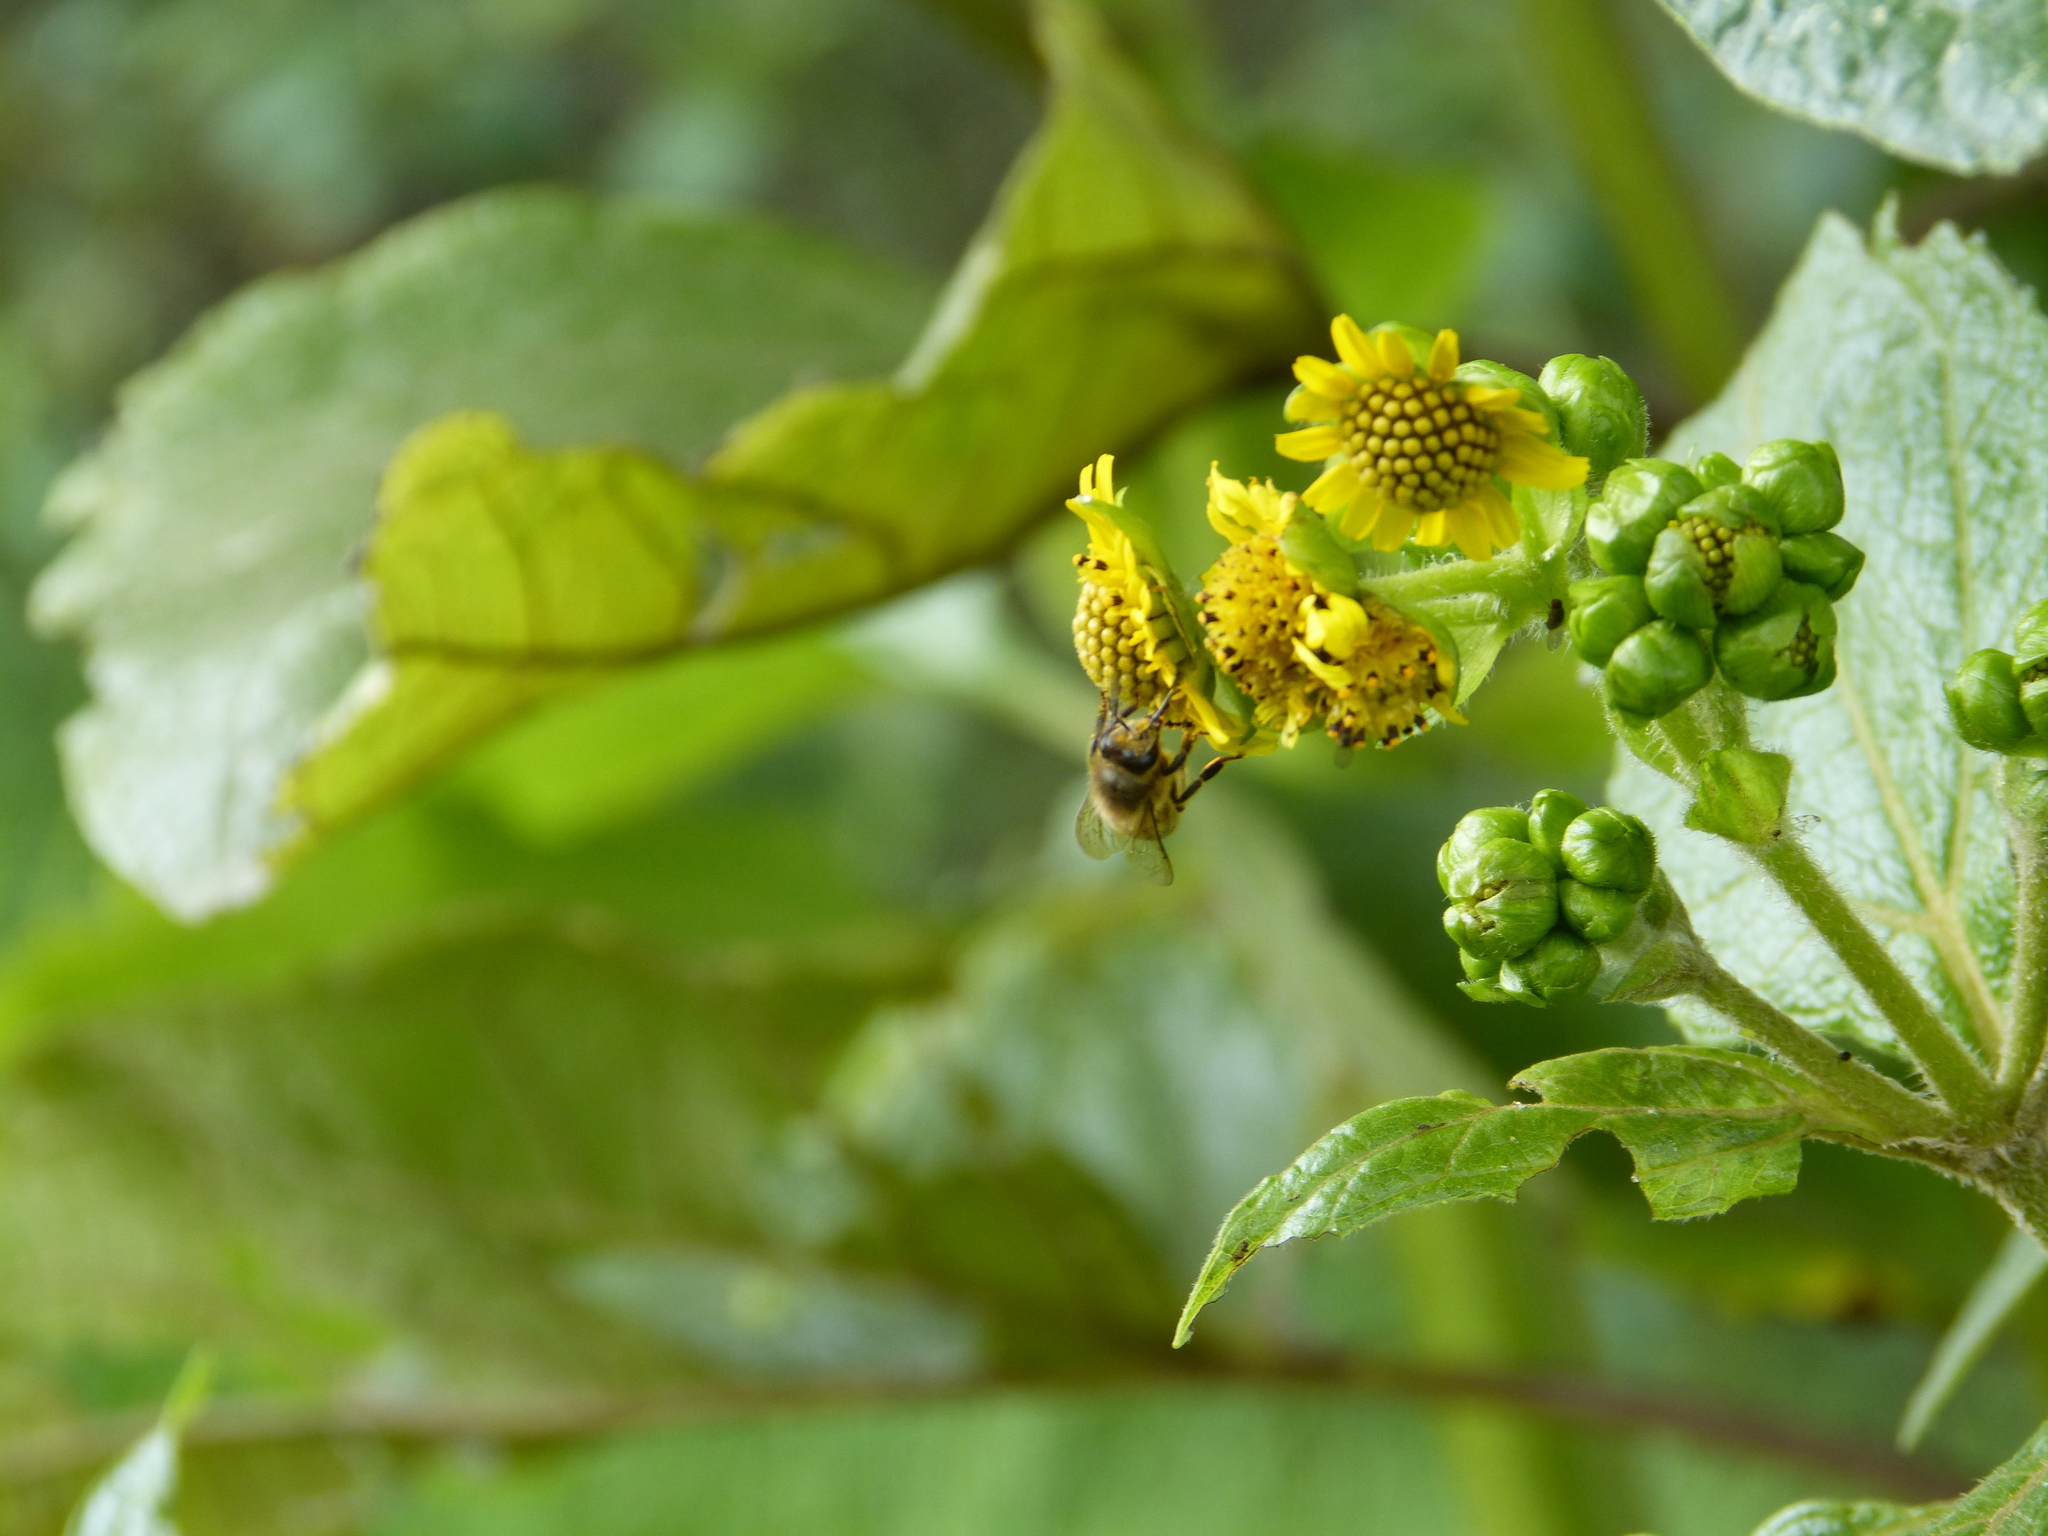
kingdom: Animalia
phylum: Arthropoda
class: Insecta
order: Hymenoptera
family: Apidae
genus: Apis
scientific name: Apis mellifera
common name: Honey bee
